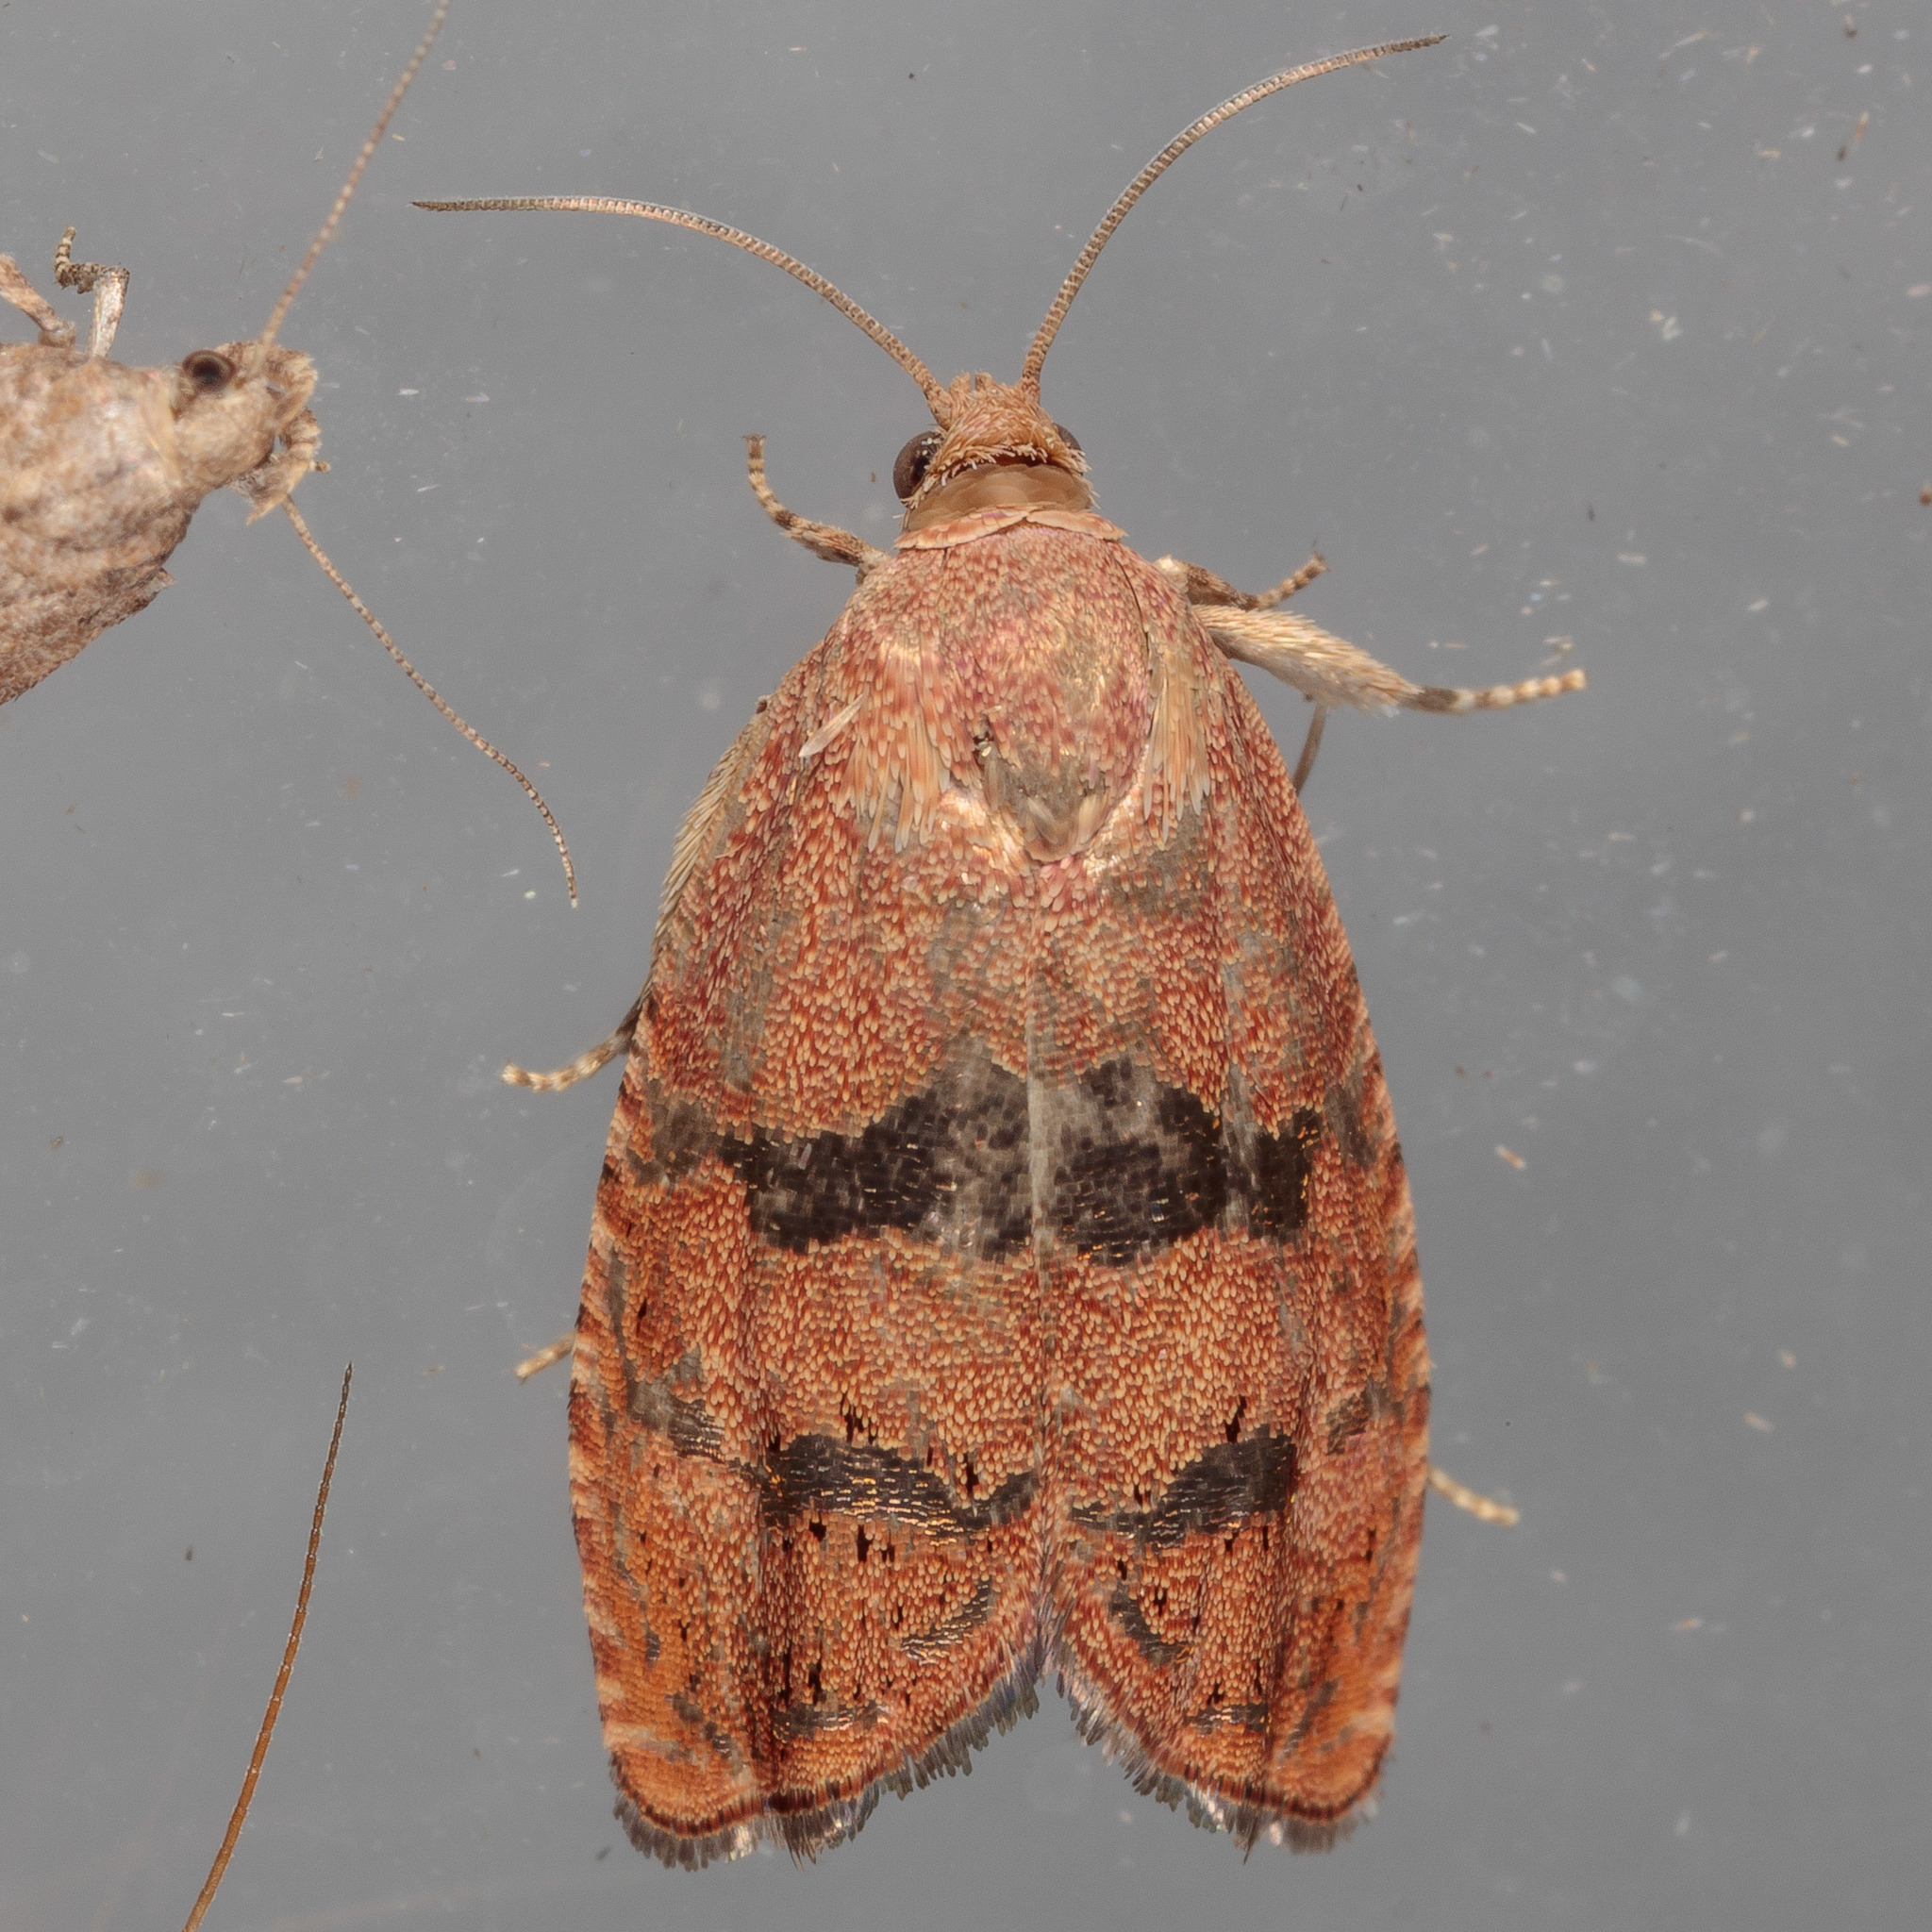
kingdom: Animalia
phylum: Arthropoda
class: Insecta
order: Lepidoptera
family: Tortricidae
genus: Cydia
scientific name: Cydia latiferreana
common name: Filbertworm moth
